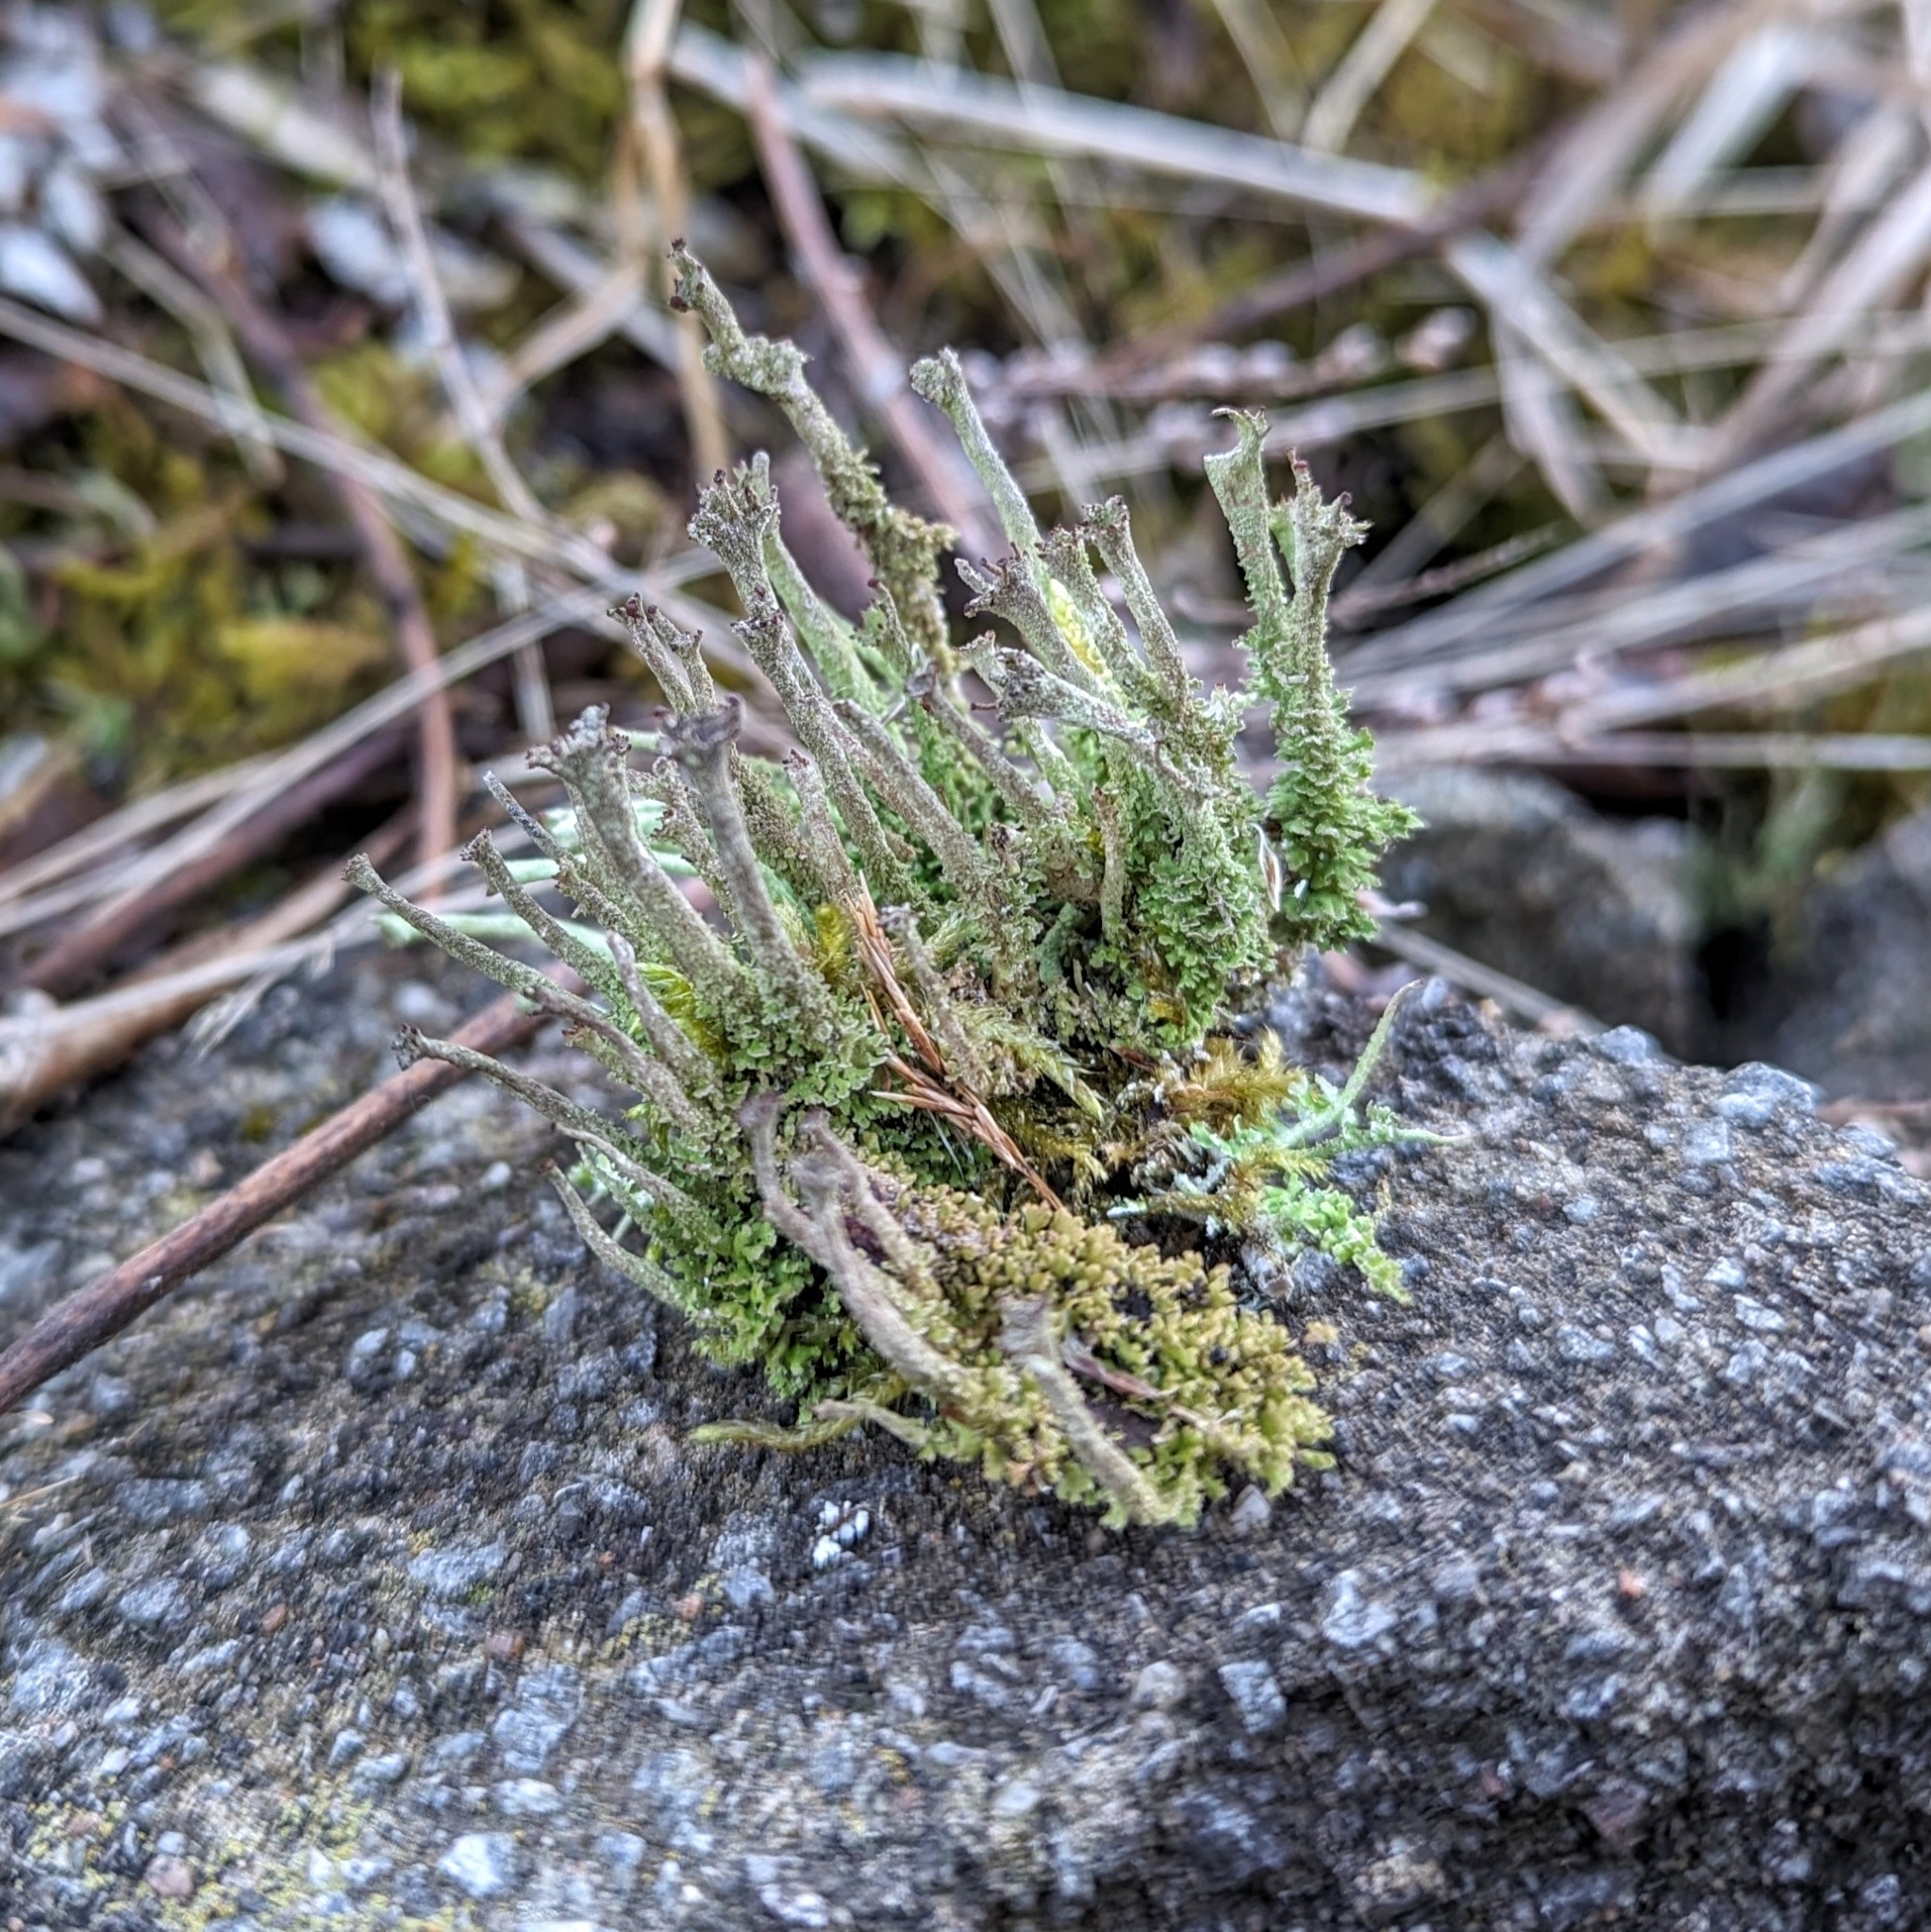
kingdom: Fungi
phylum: Ascomycota
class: Lecanoromycetes
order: Lecanorales
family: Cladoniaceae
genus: Cladonia
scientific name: Cladonia
